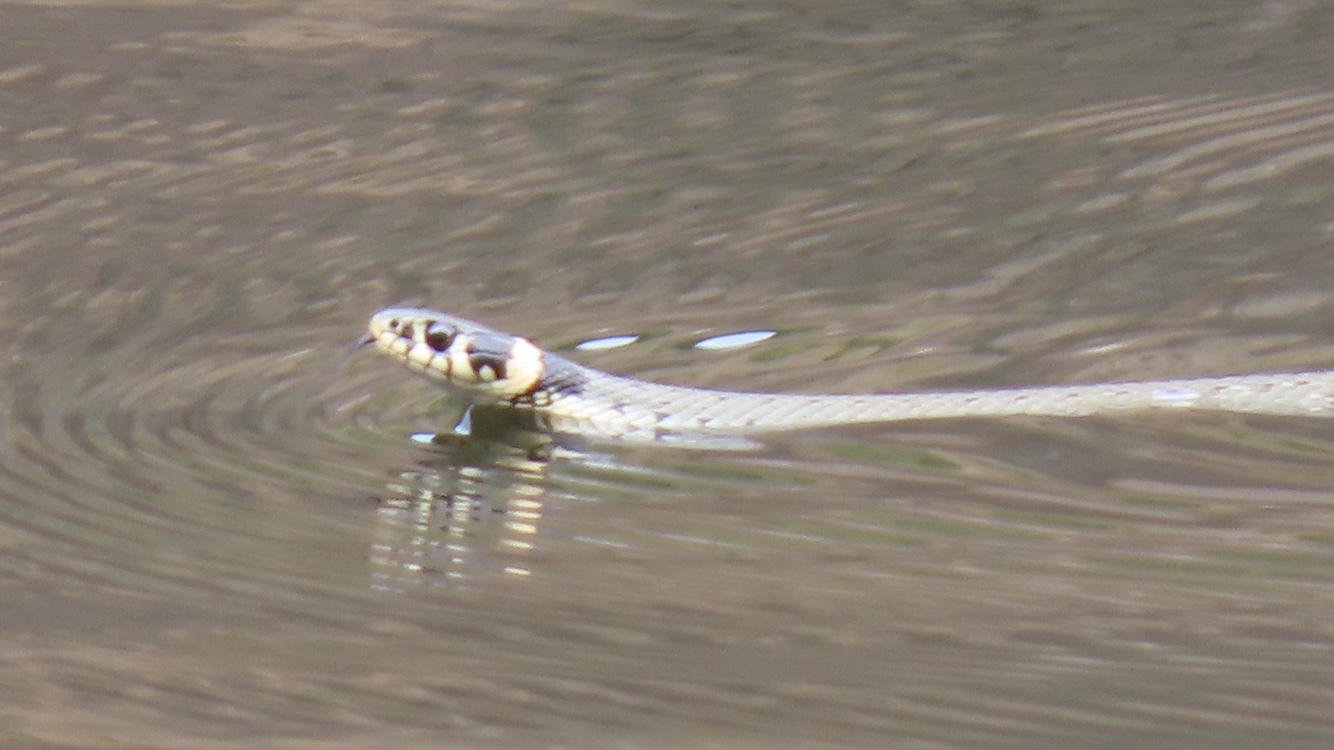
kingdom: Animalia
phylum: Chordata
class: Squamata
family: Colubridae
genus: Natrix
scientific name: Natrix natrix
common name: Grass snake
